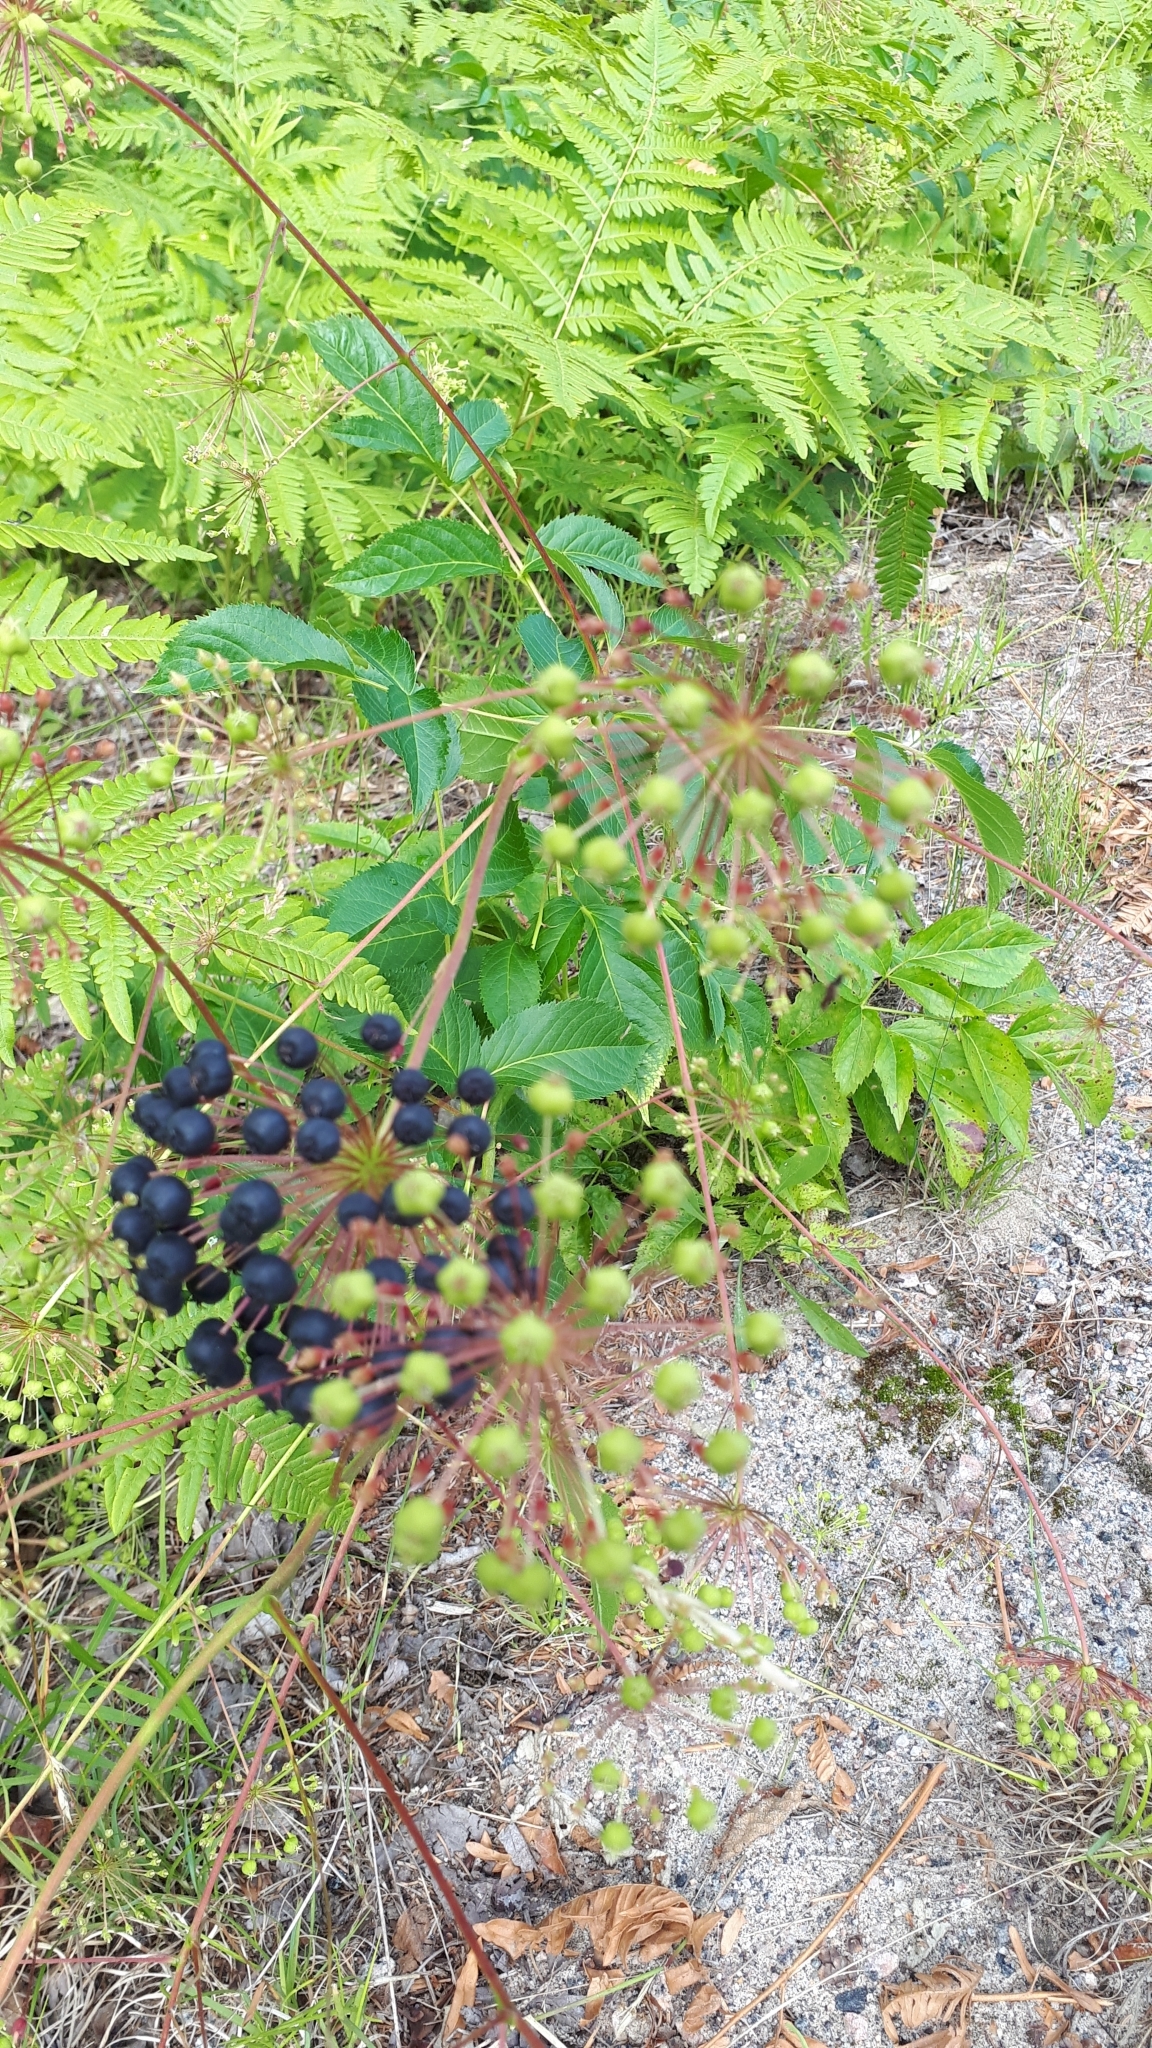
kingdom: Plantae
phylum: Tracheophyta
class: Magnoliopsida
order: Apiales
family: Araliaceae
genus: Aralia
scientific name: Aralia hispida
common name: Bristly sarsaparilla
